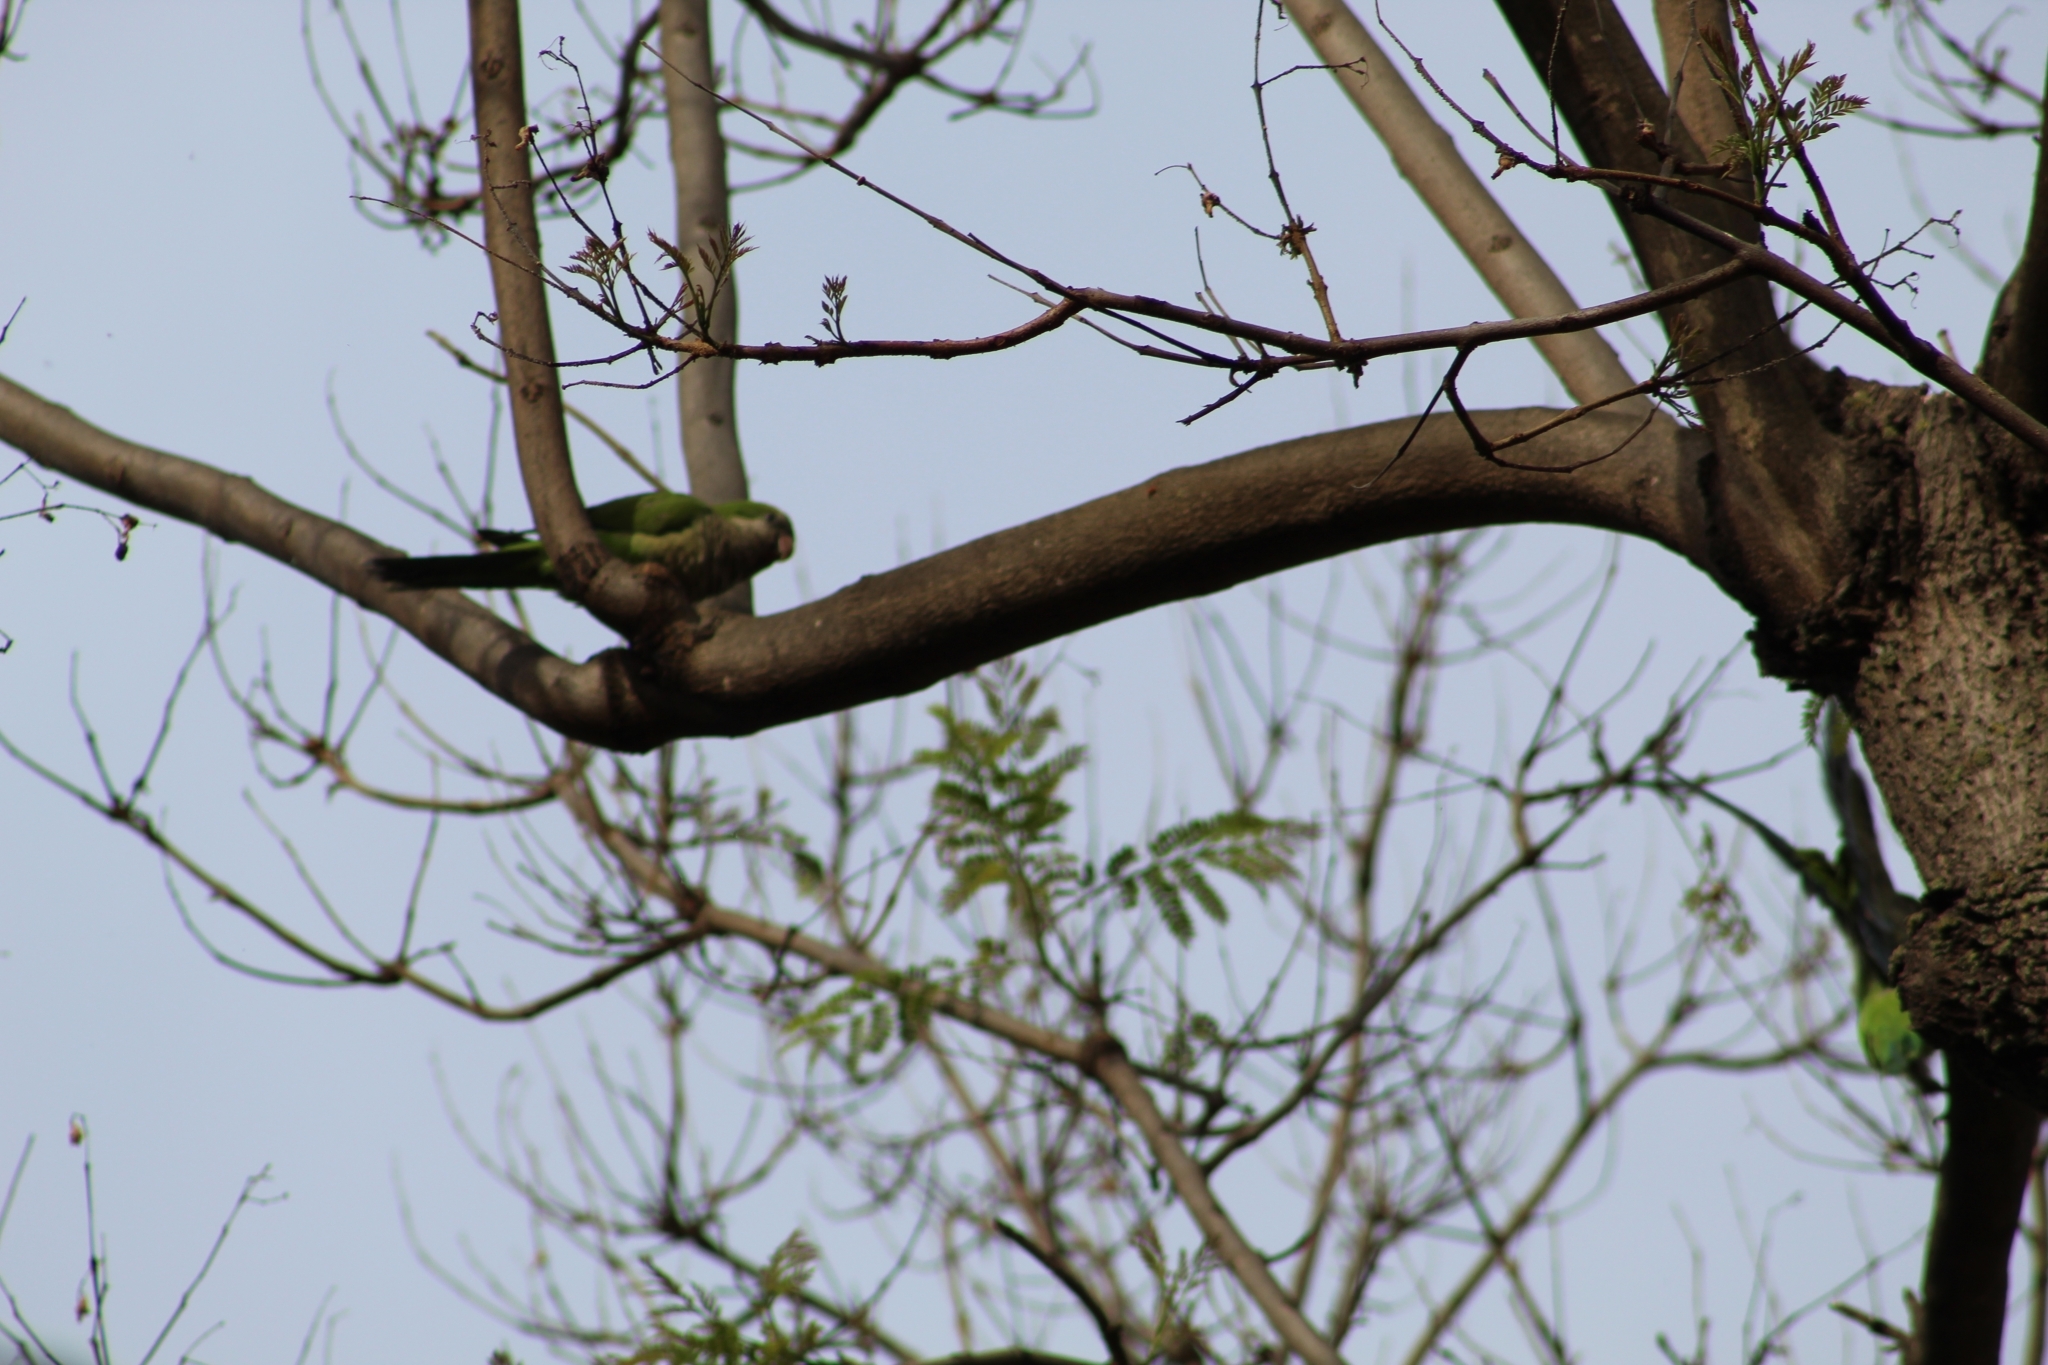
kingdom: Animalia
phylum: Chordata
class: Aves
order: Psittaciformes
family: Psittacidae
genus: Myiopsitta
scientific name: Myiopsitta monachus
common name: Monk parakeet
